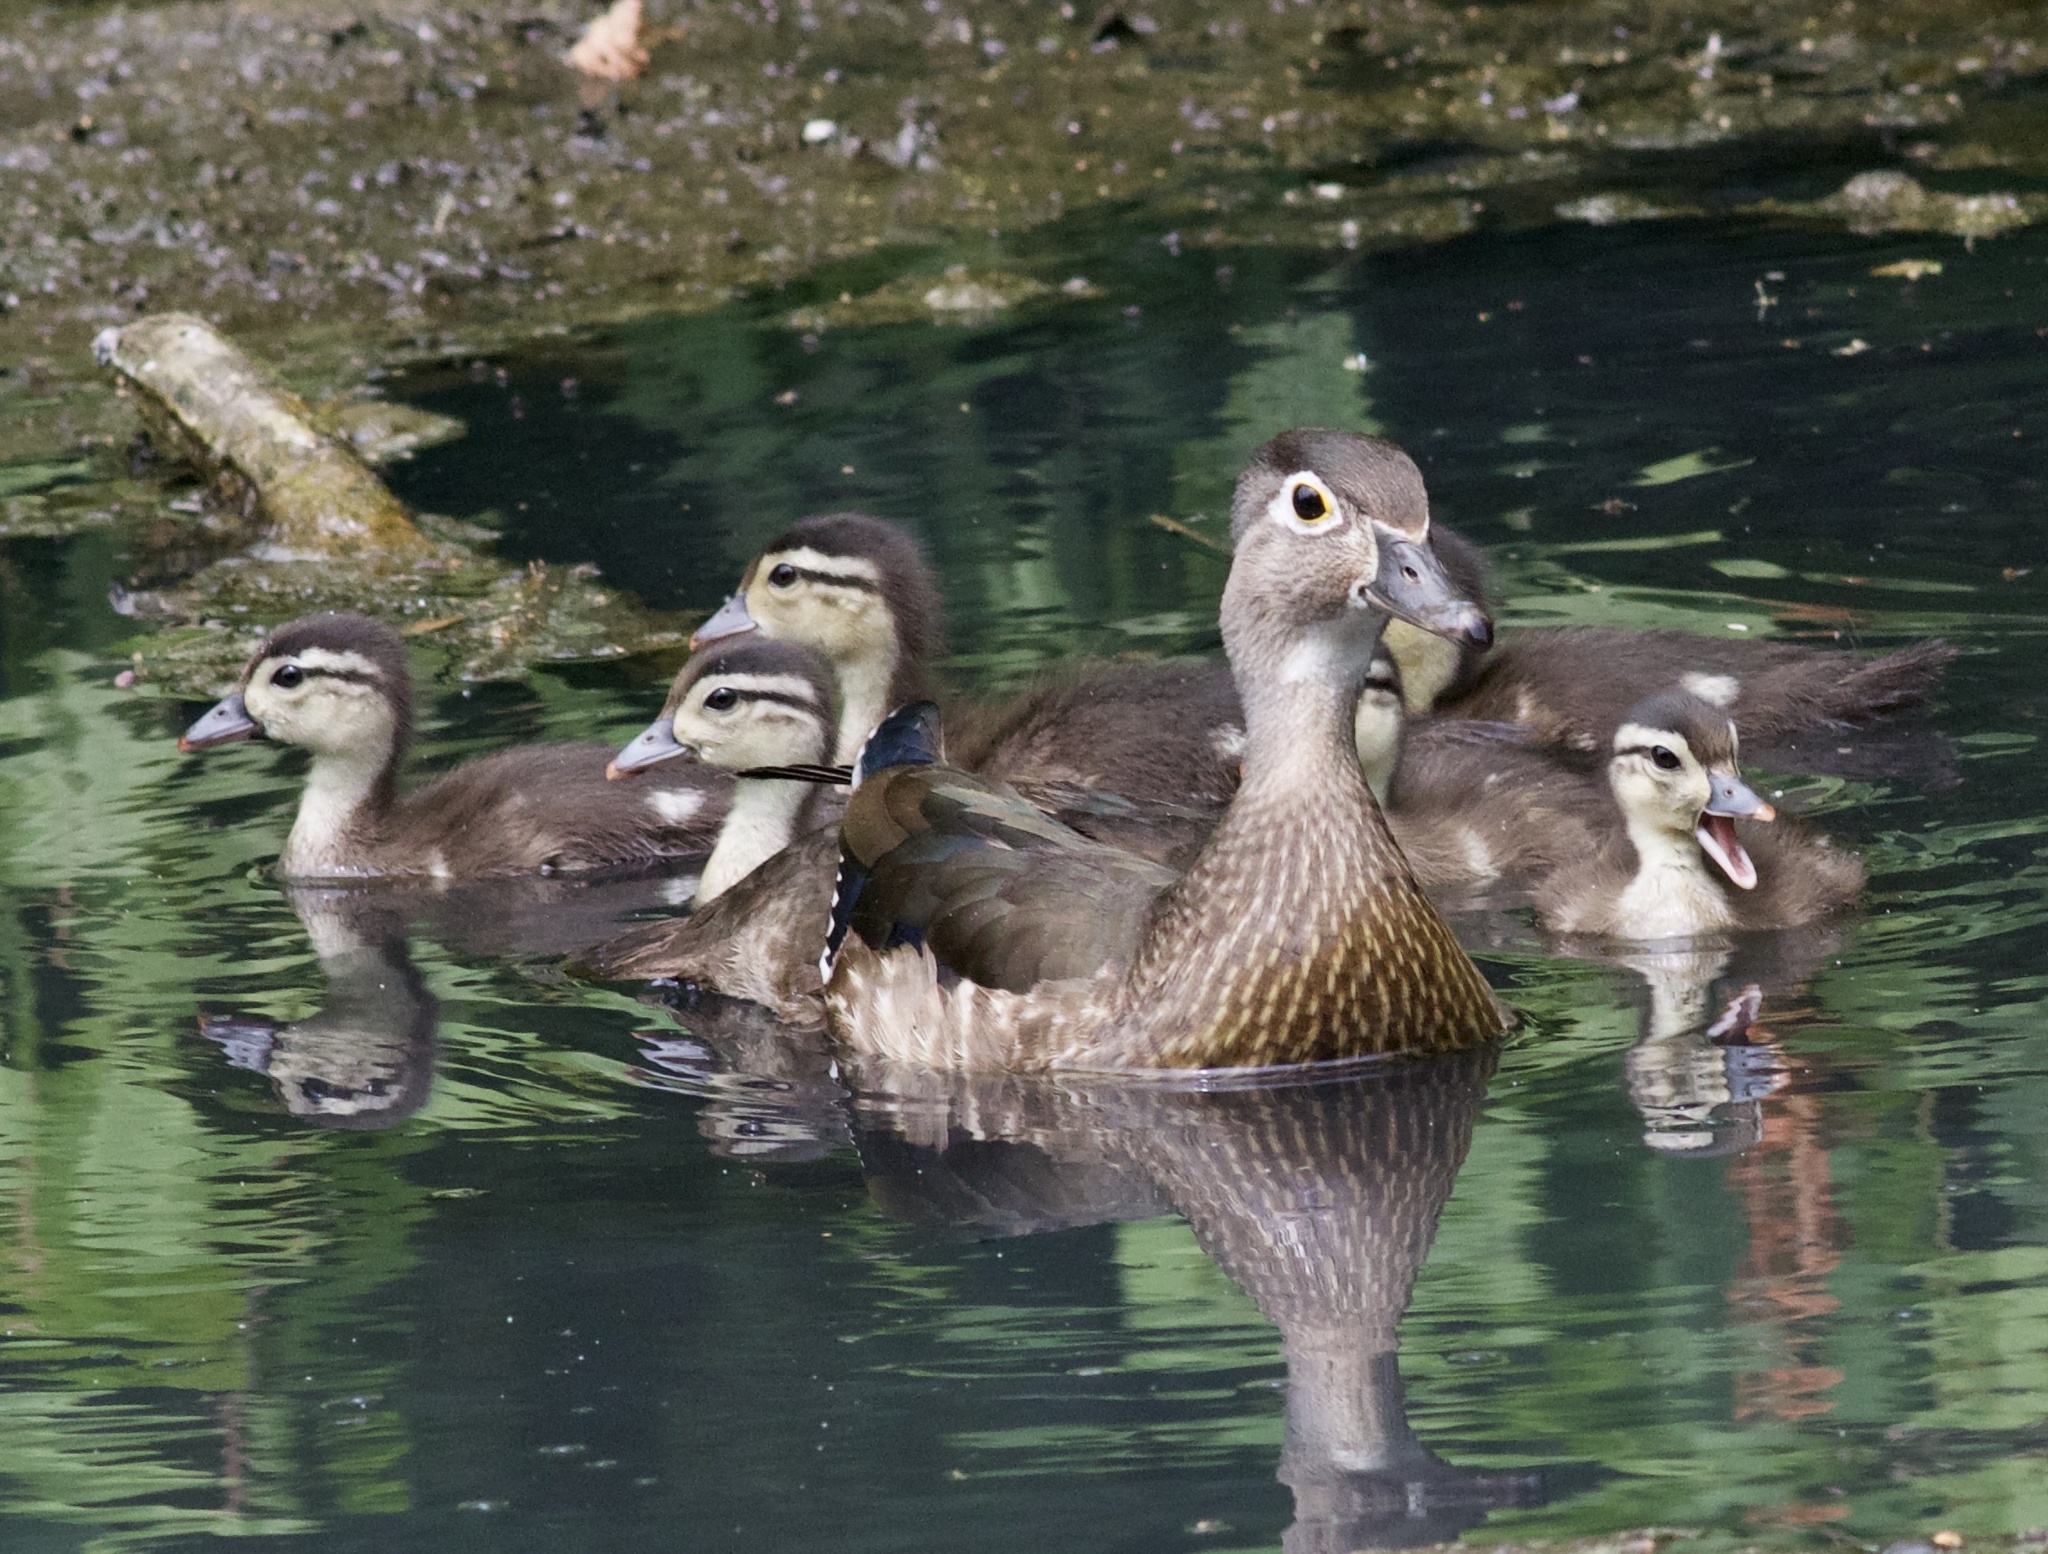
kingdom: Animalia
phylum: Chordata
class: Aves
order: Anseriformes
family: Anatidae
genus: Aix
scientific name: Aix sponsa
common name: Wood duck
